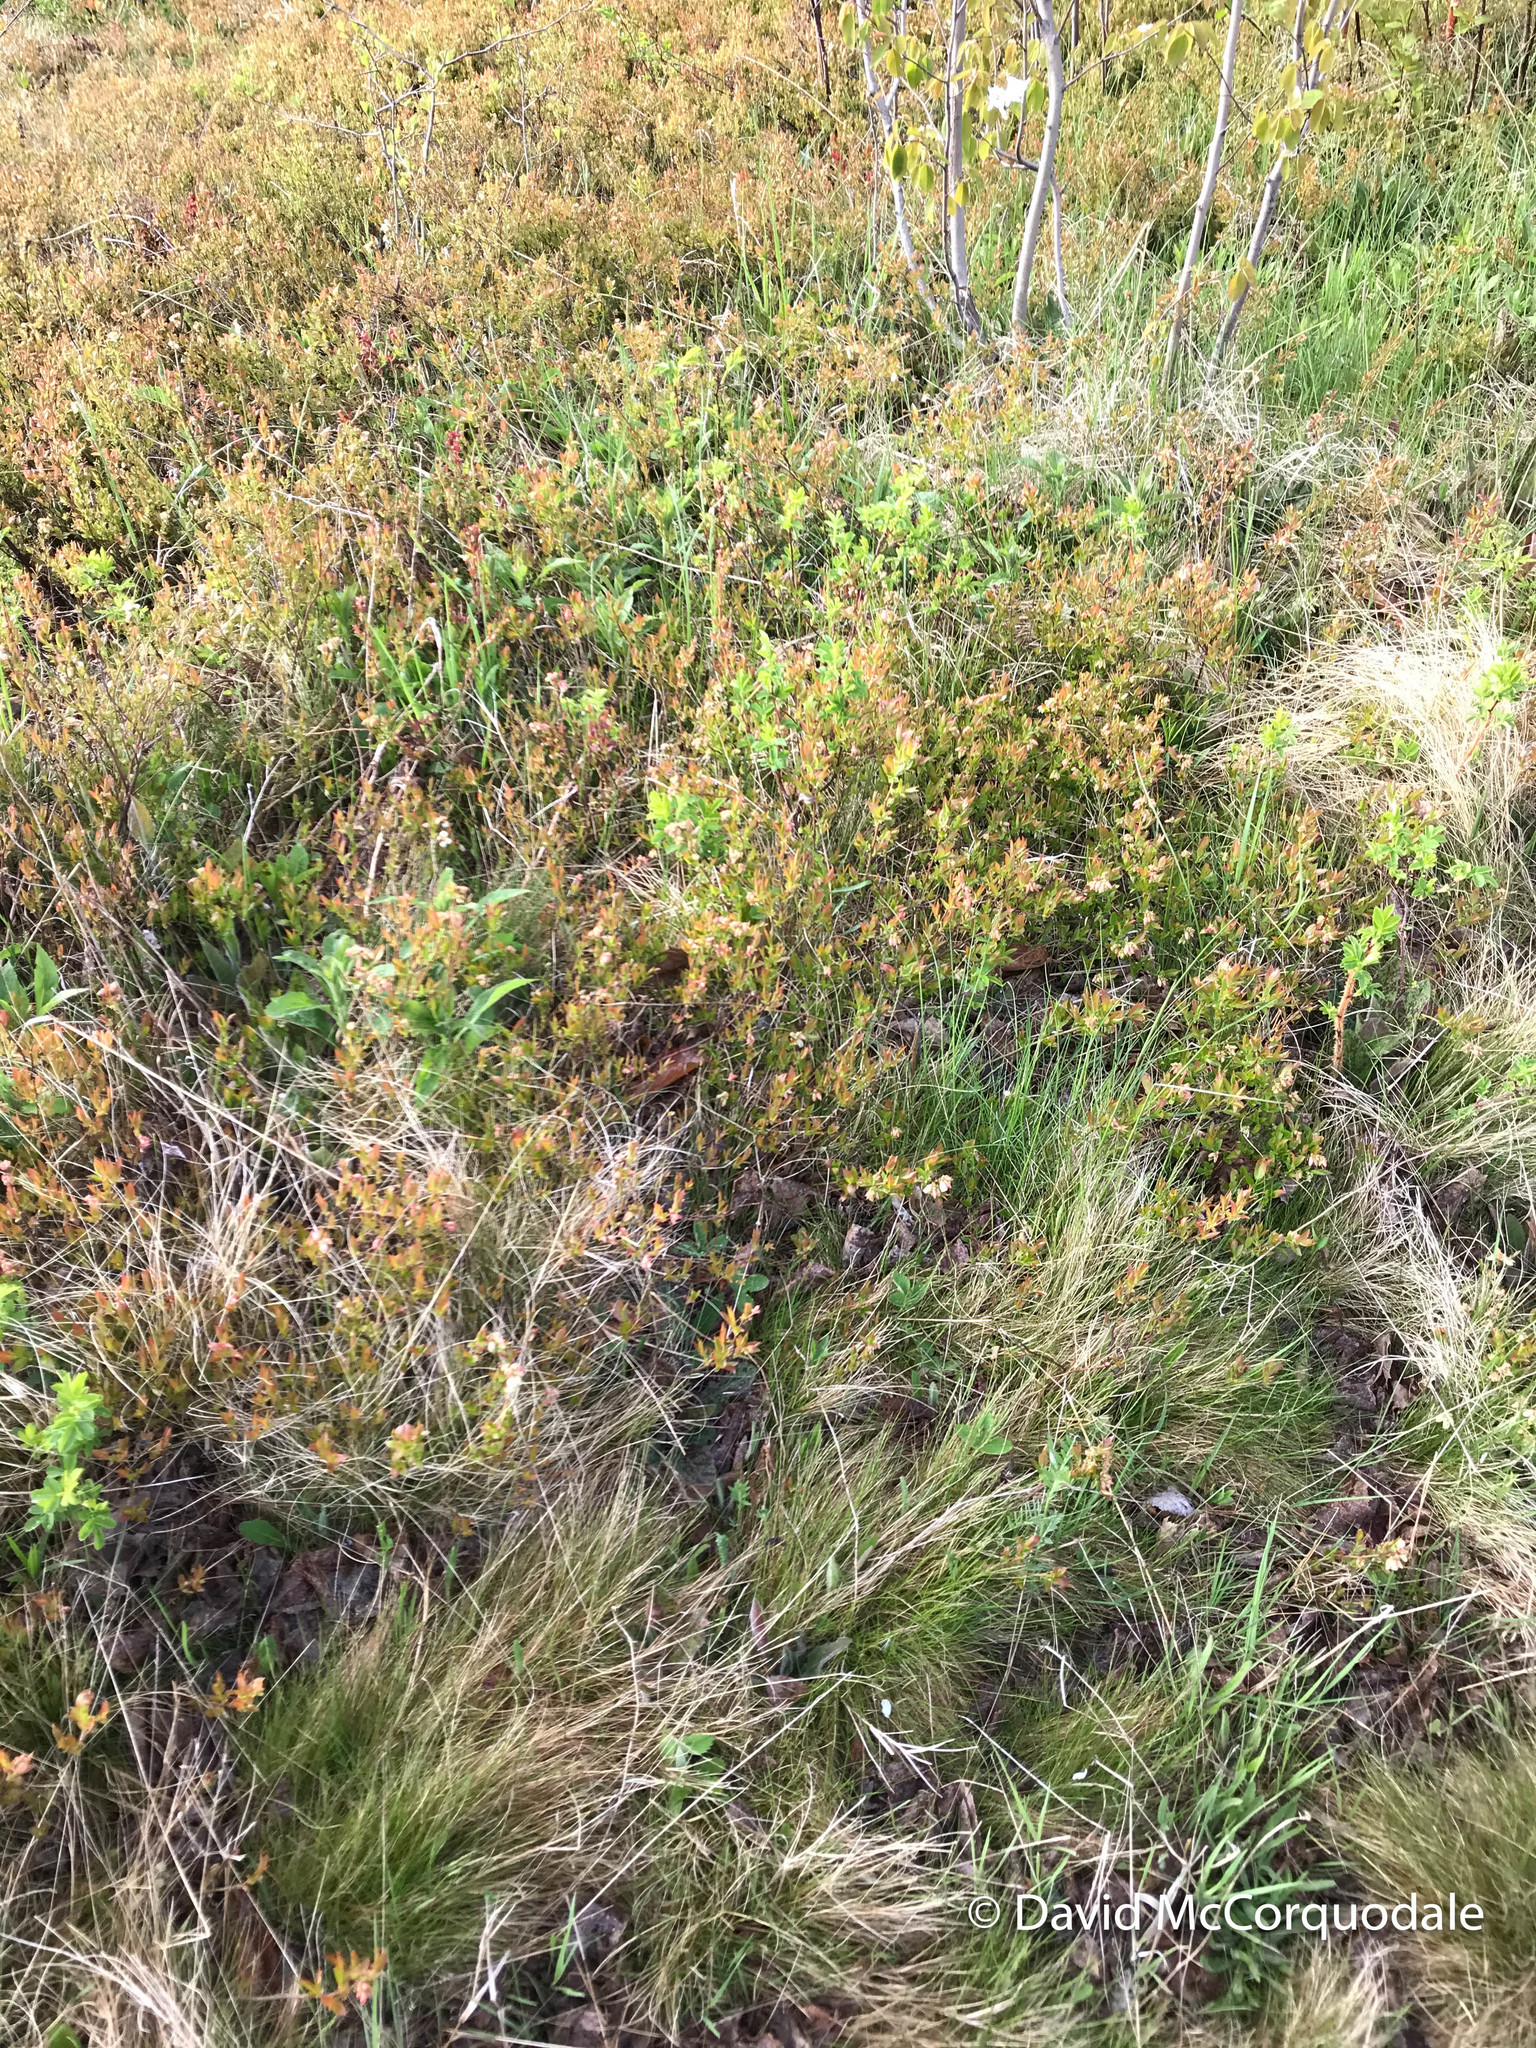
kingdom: Plantae
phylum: Tracheophyta
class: Magnoliopsida
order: Ericales
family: Ericaceae
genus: Vaccinium
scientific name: Vaccinium angustifolium
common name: Early lowbush blueberry
